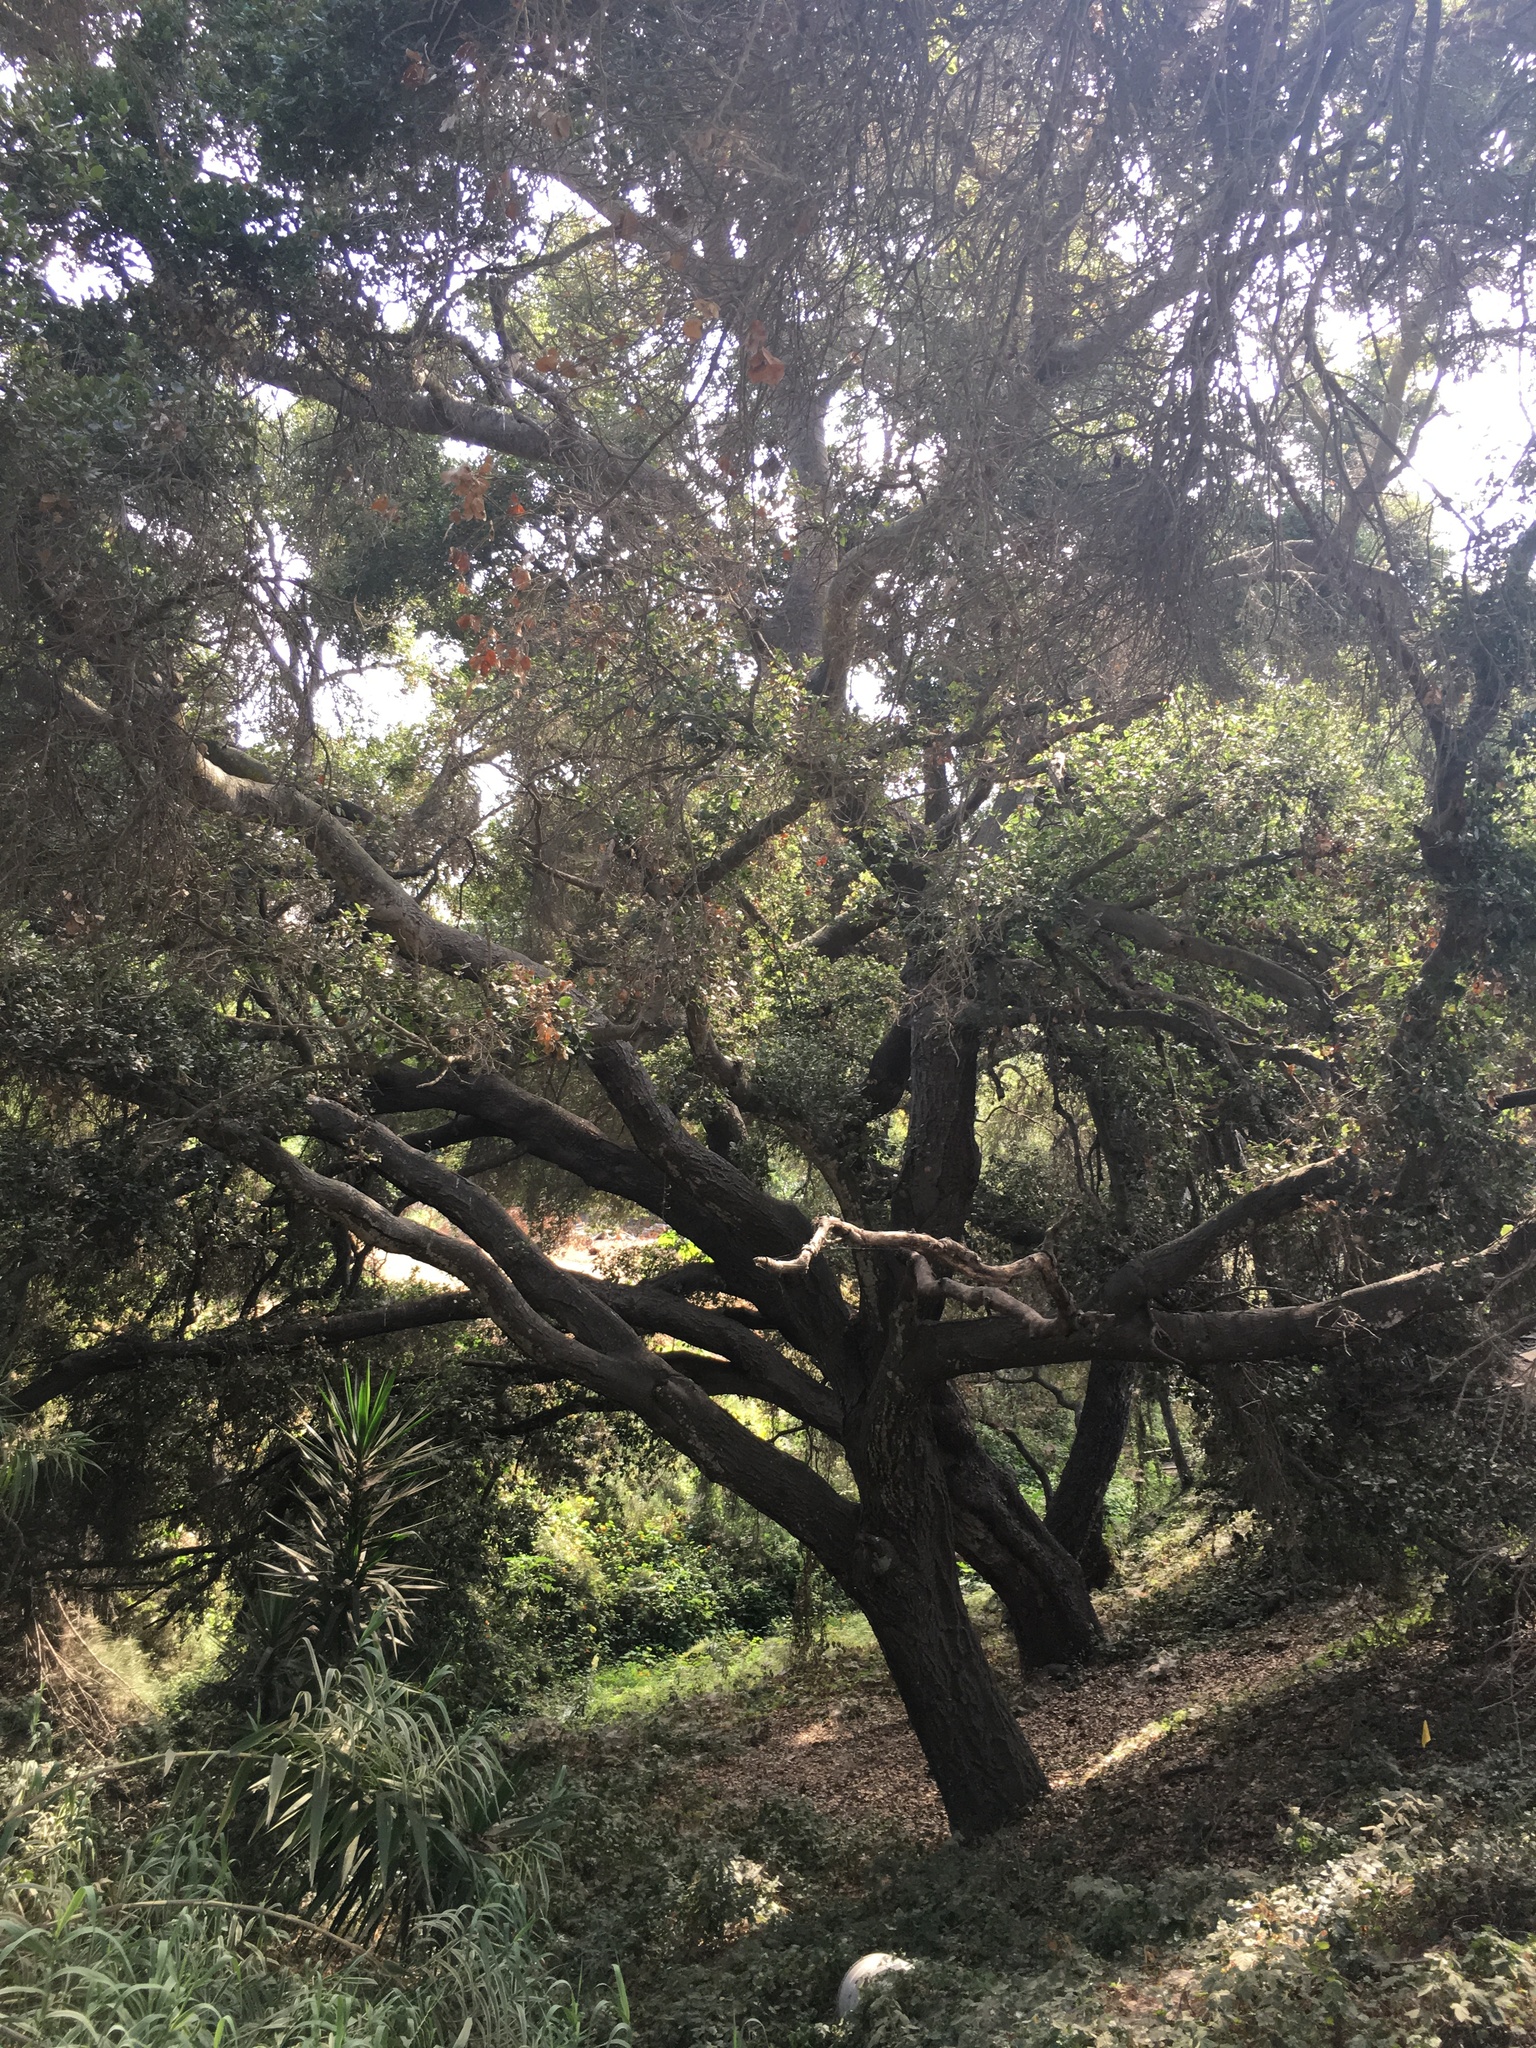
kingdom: Plantae
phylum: Tracheophyta
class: Magnoliopsida
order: Fagales
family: Fagaceae
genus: Quercus
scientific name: Quercus agrifolia
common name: California live oak
